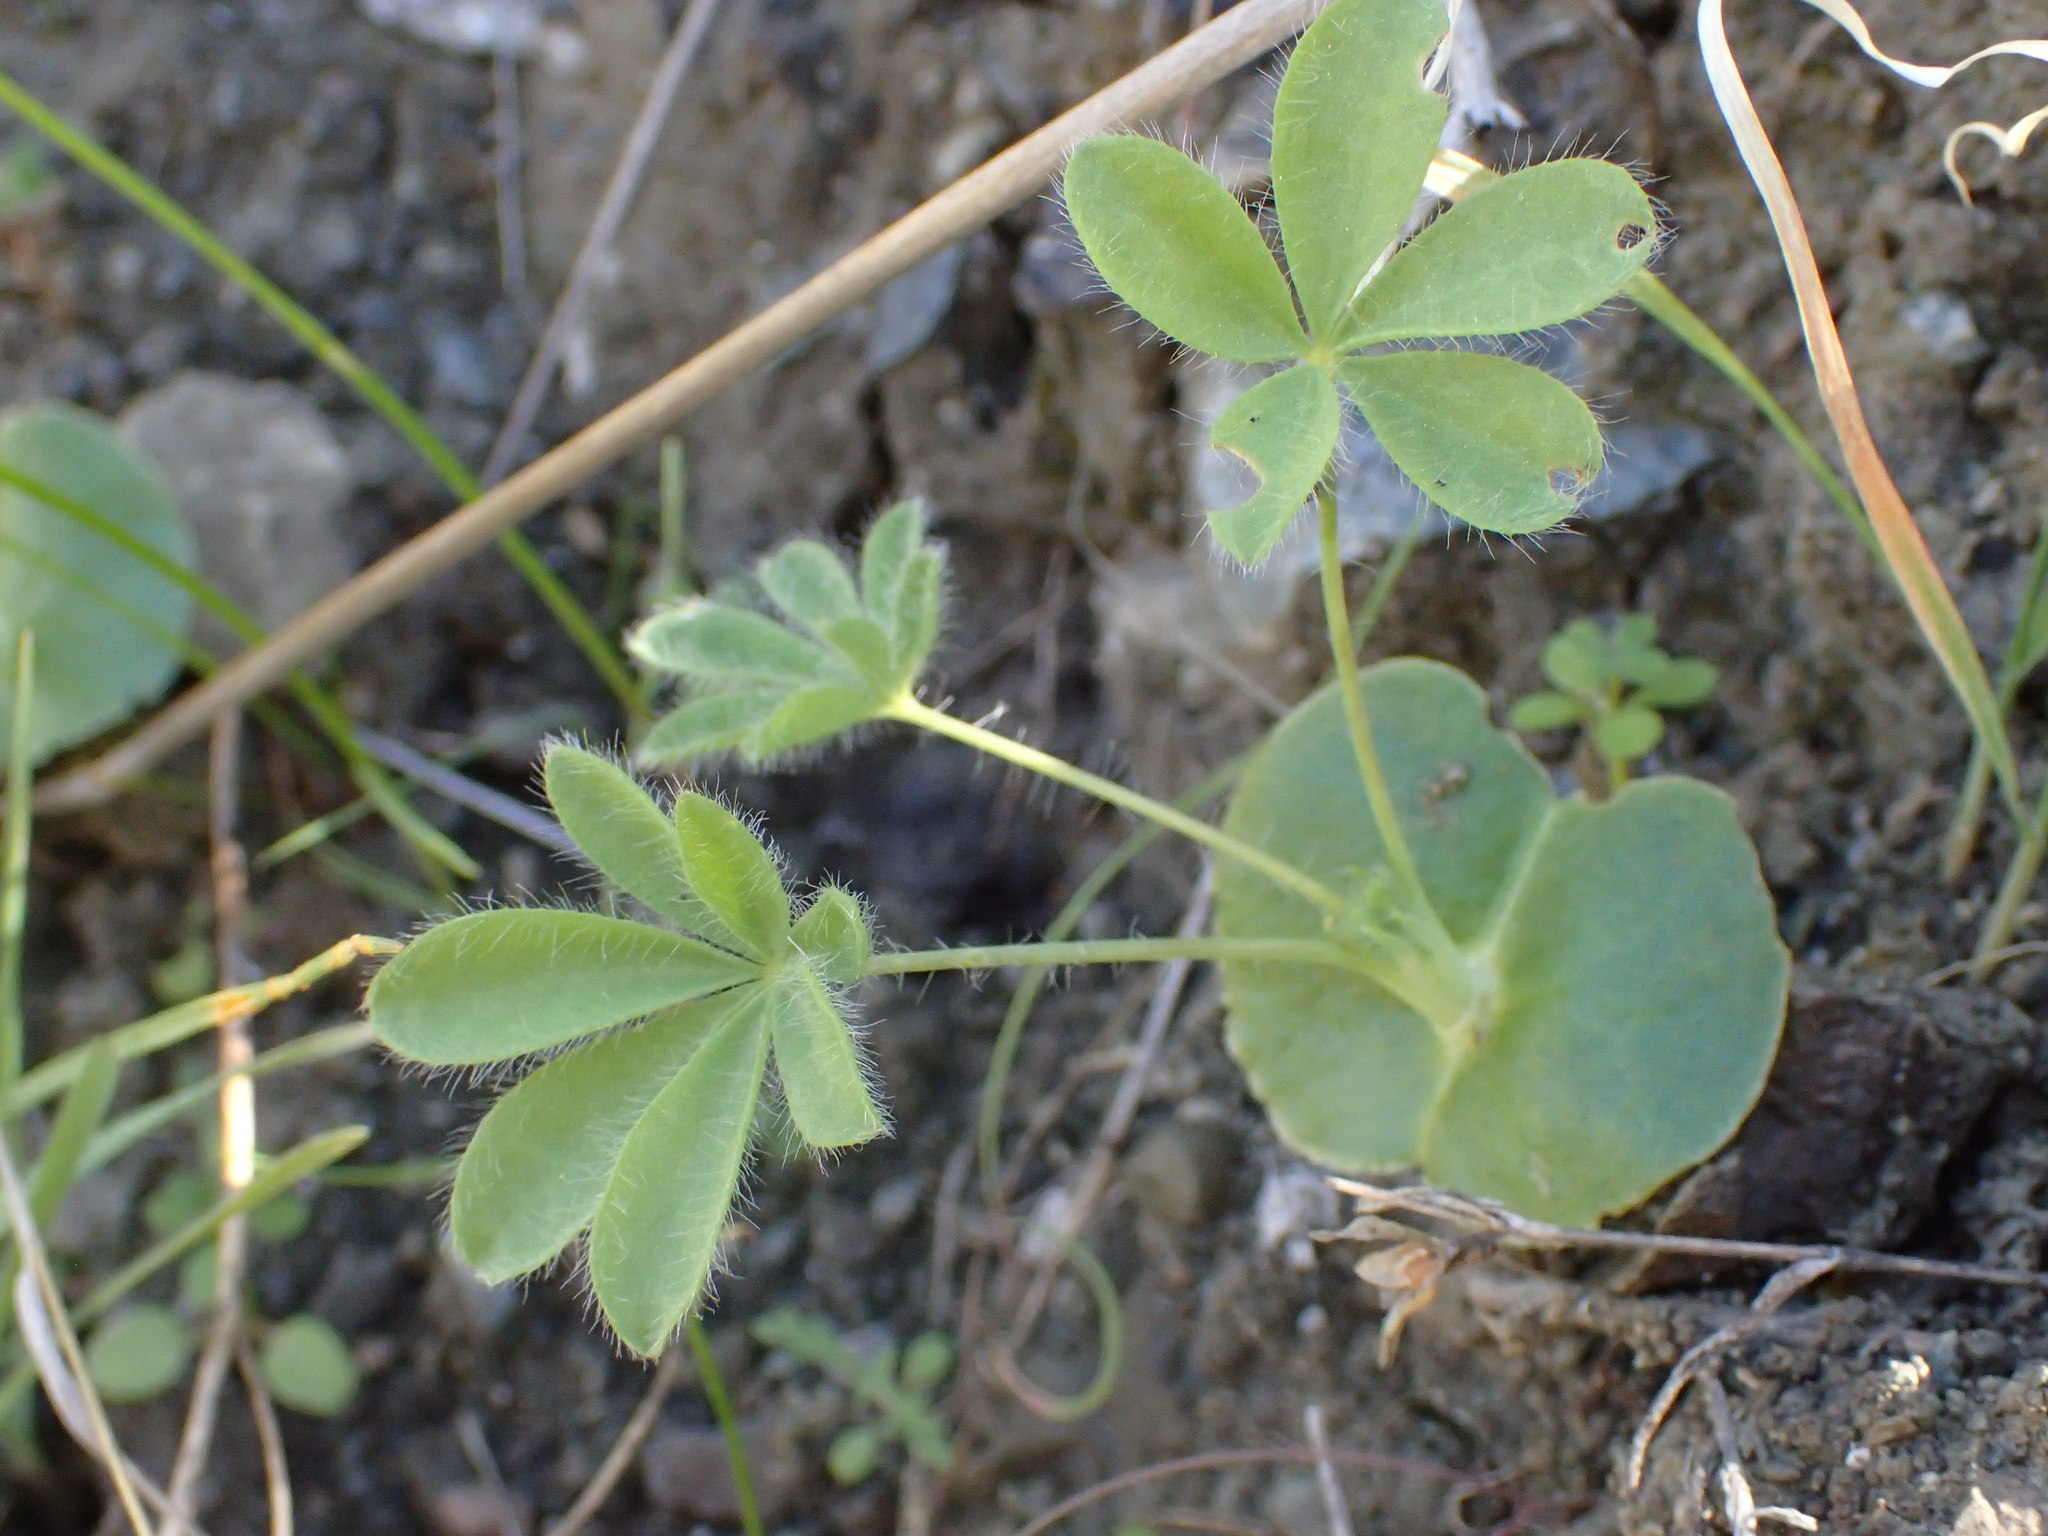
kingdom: Plantae
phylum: Tracheophyta
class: Magnoliopsida
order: Fabales
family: Fabaceae
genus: Lupinus
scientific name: Lupinus densiflorus
